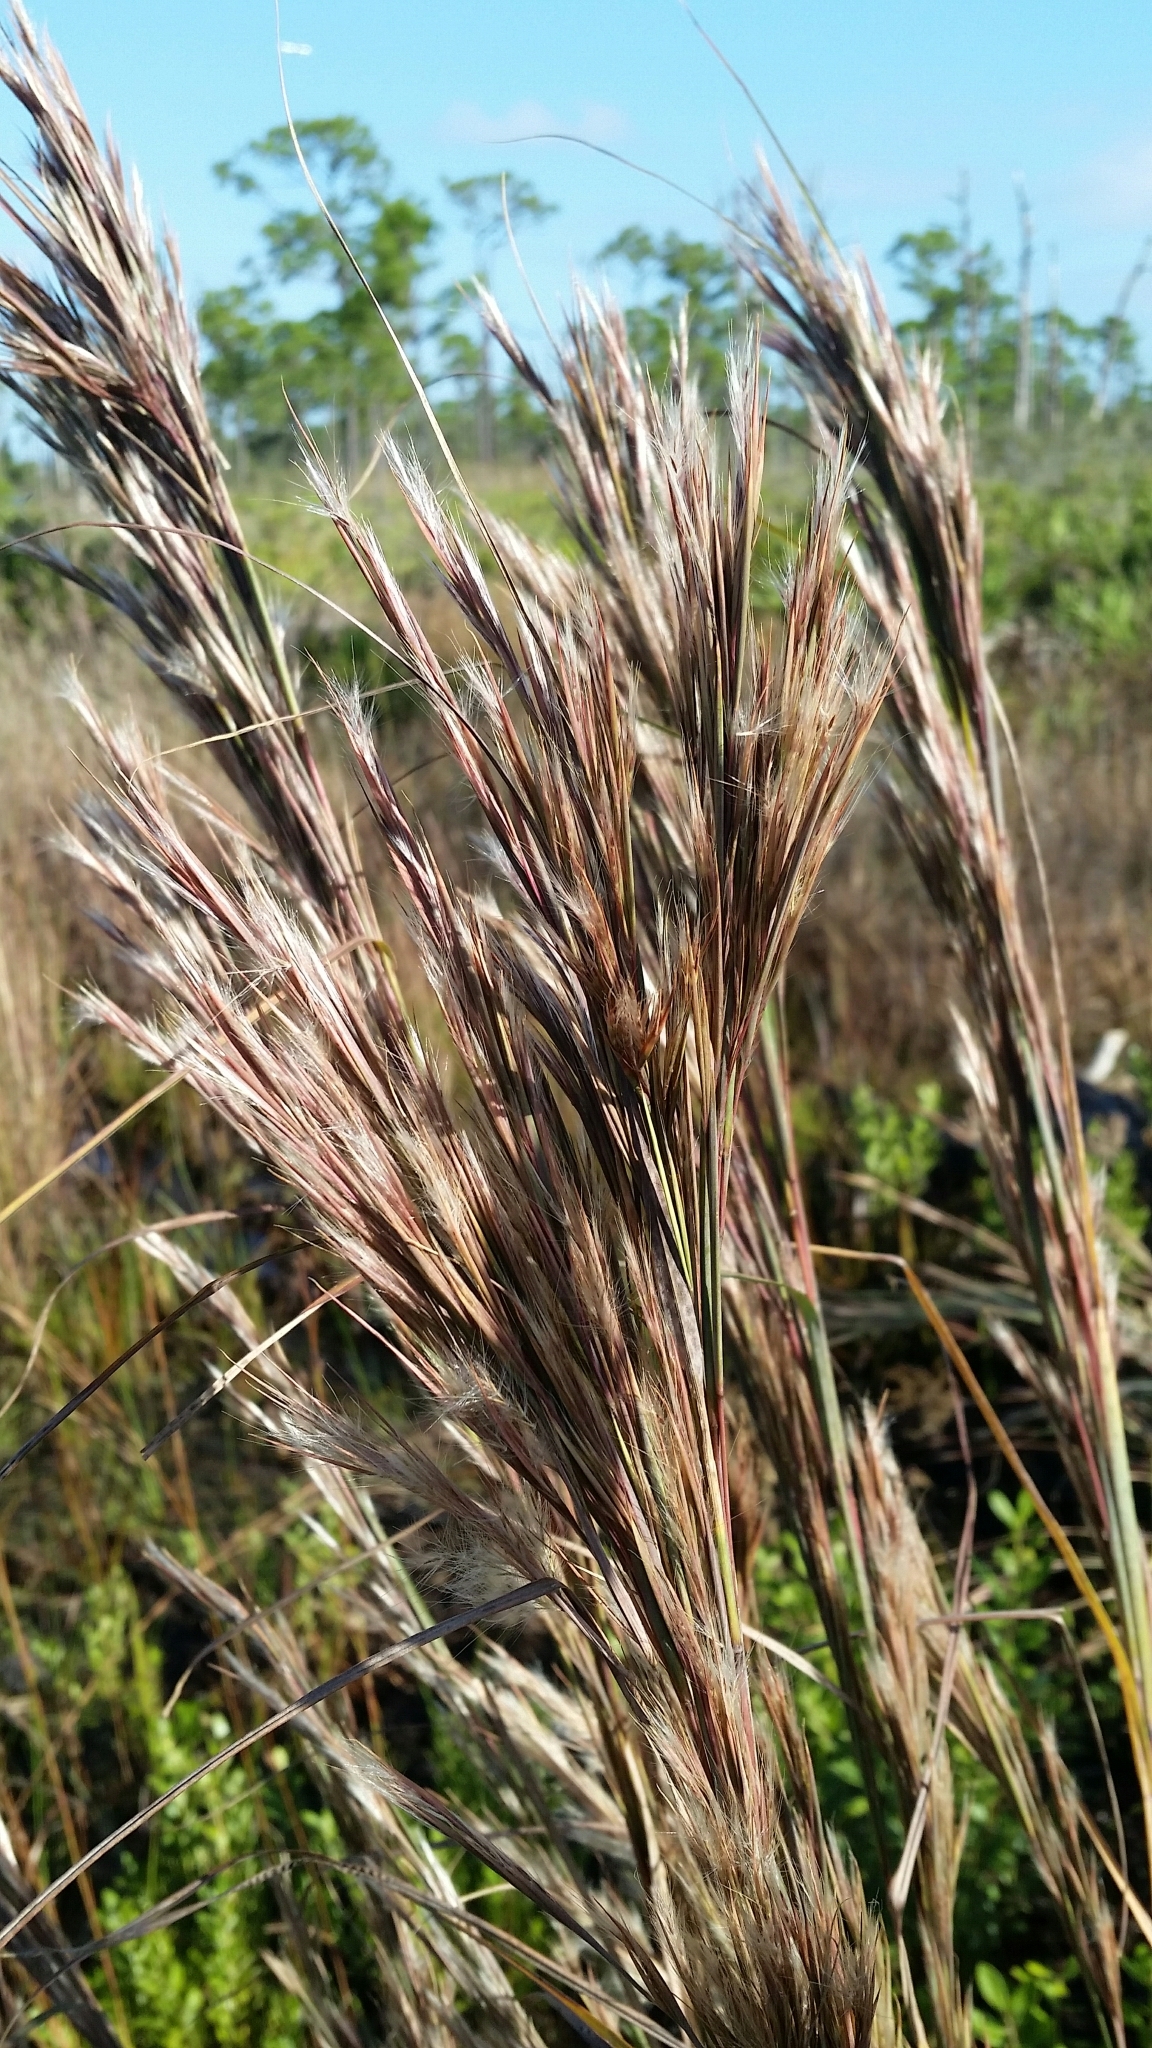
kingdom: Plantae
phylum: Tracheophyta
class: Liliopsida
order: Poales
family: Poaceae
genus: Andropogon
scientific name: Andropogon cretaceus
